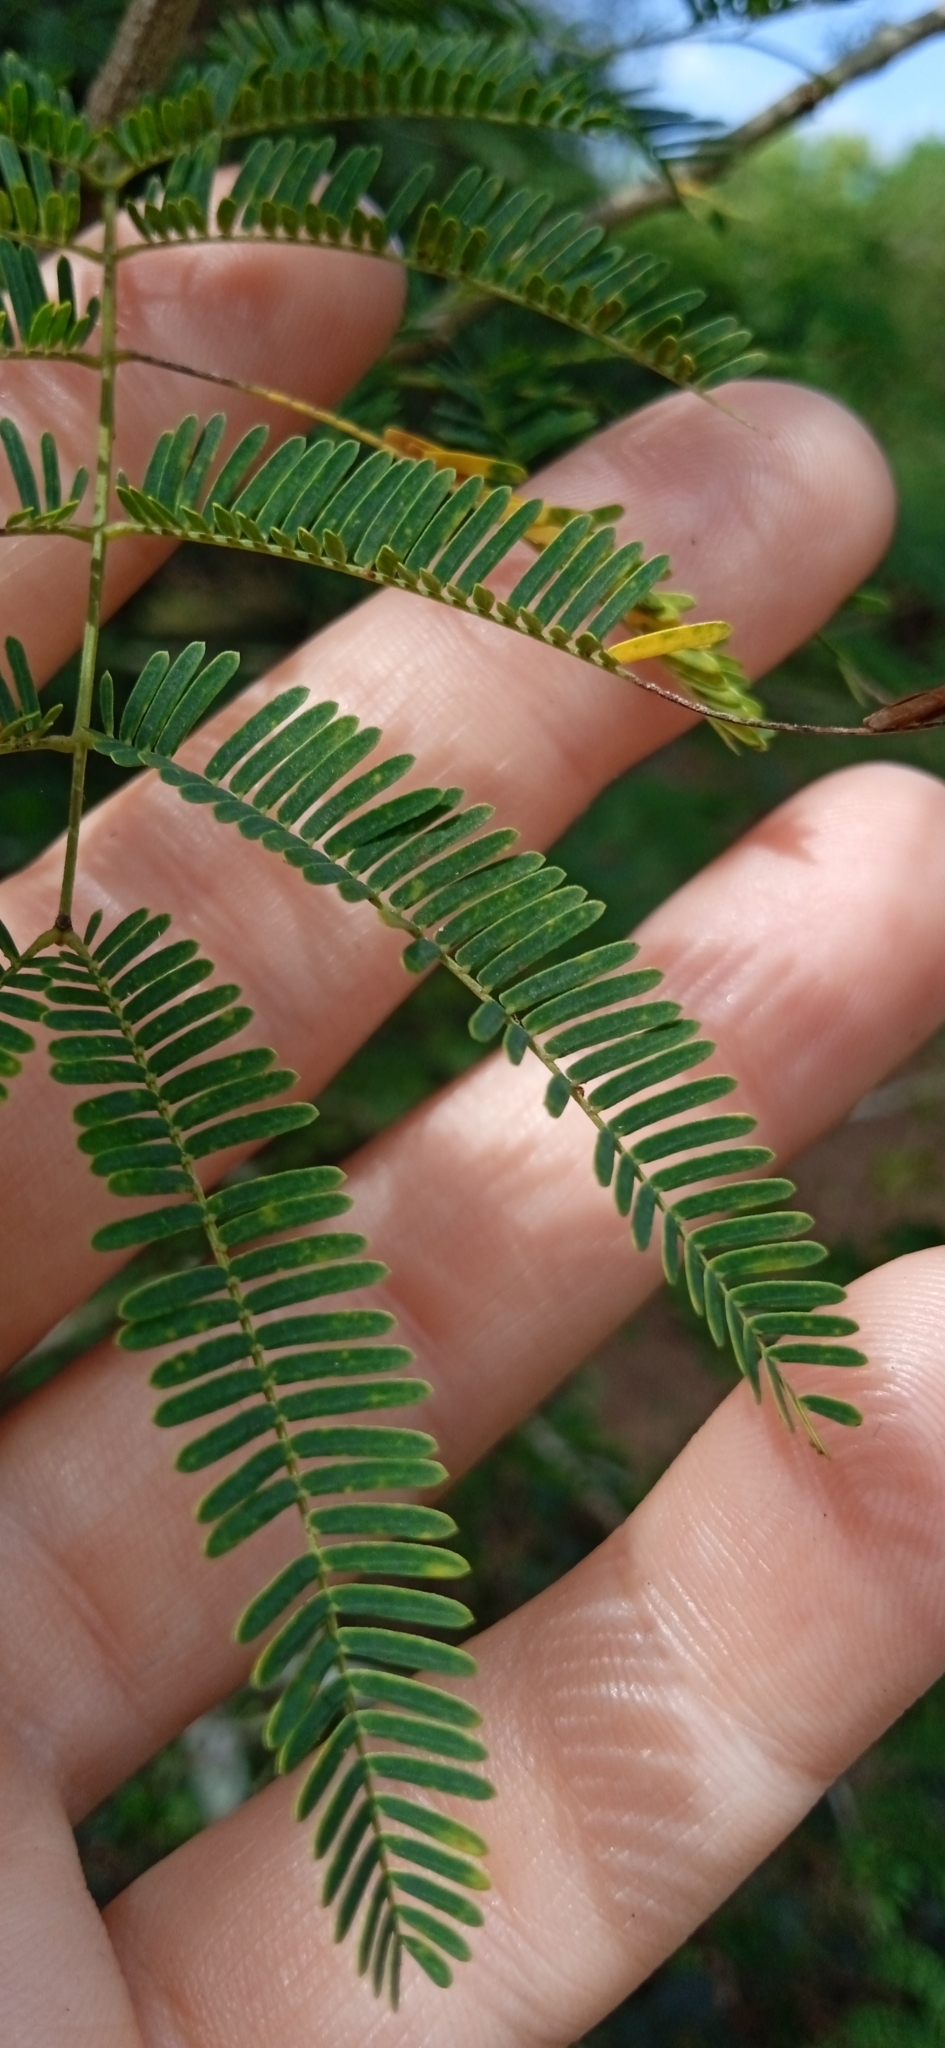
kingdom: Plantae
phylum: Tracheophyta
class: Magnoliopsida
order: Fabales
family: Fabaceae
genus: Senegalia
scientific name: Senegalia bonariensis
